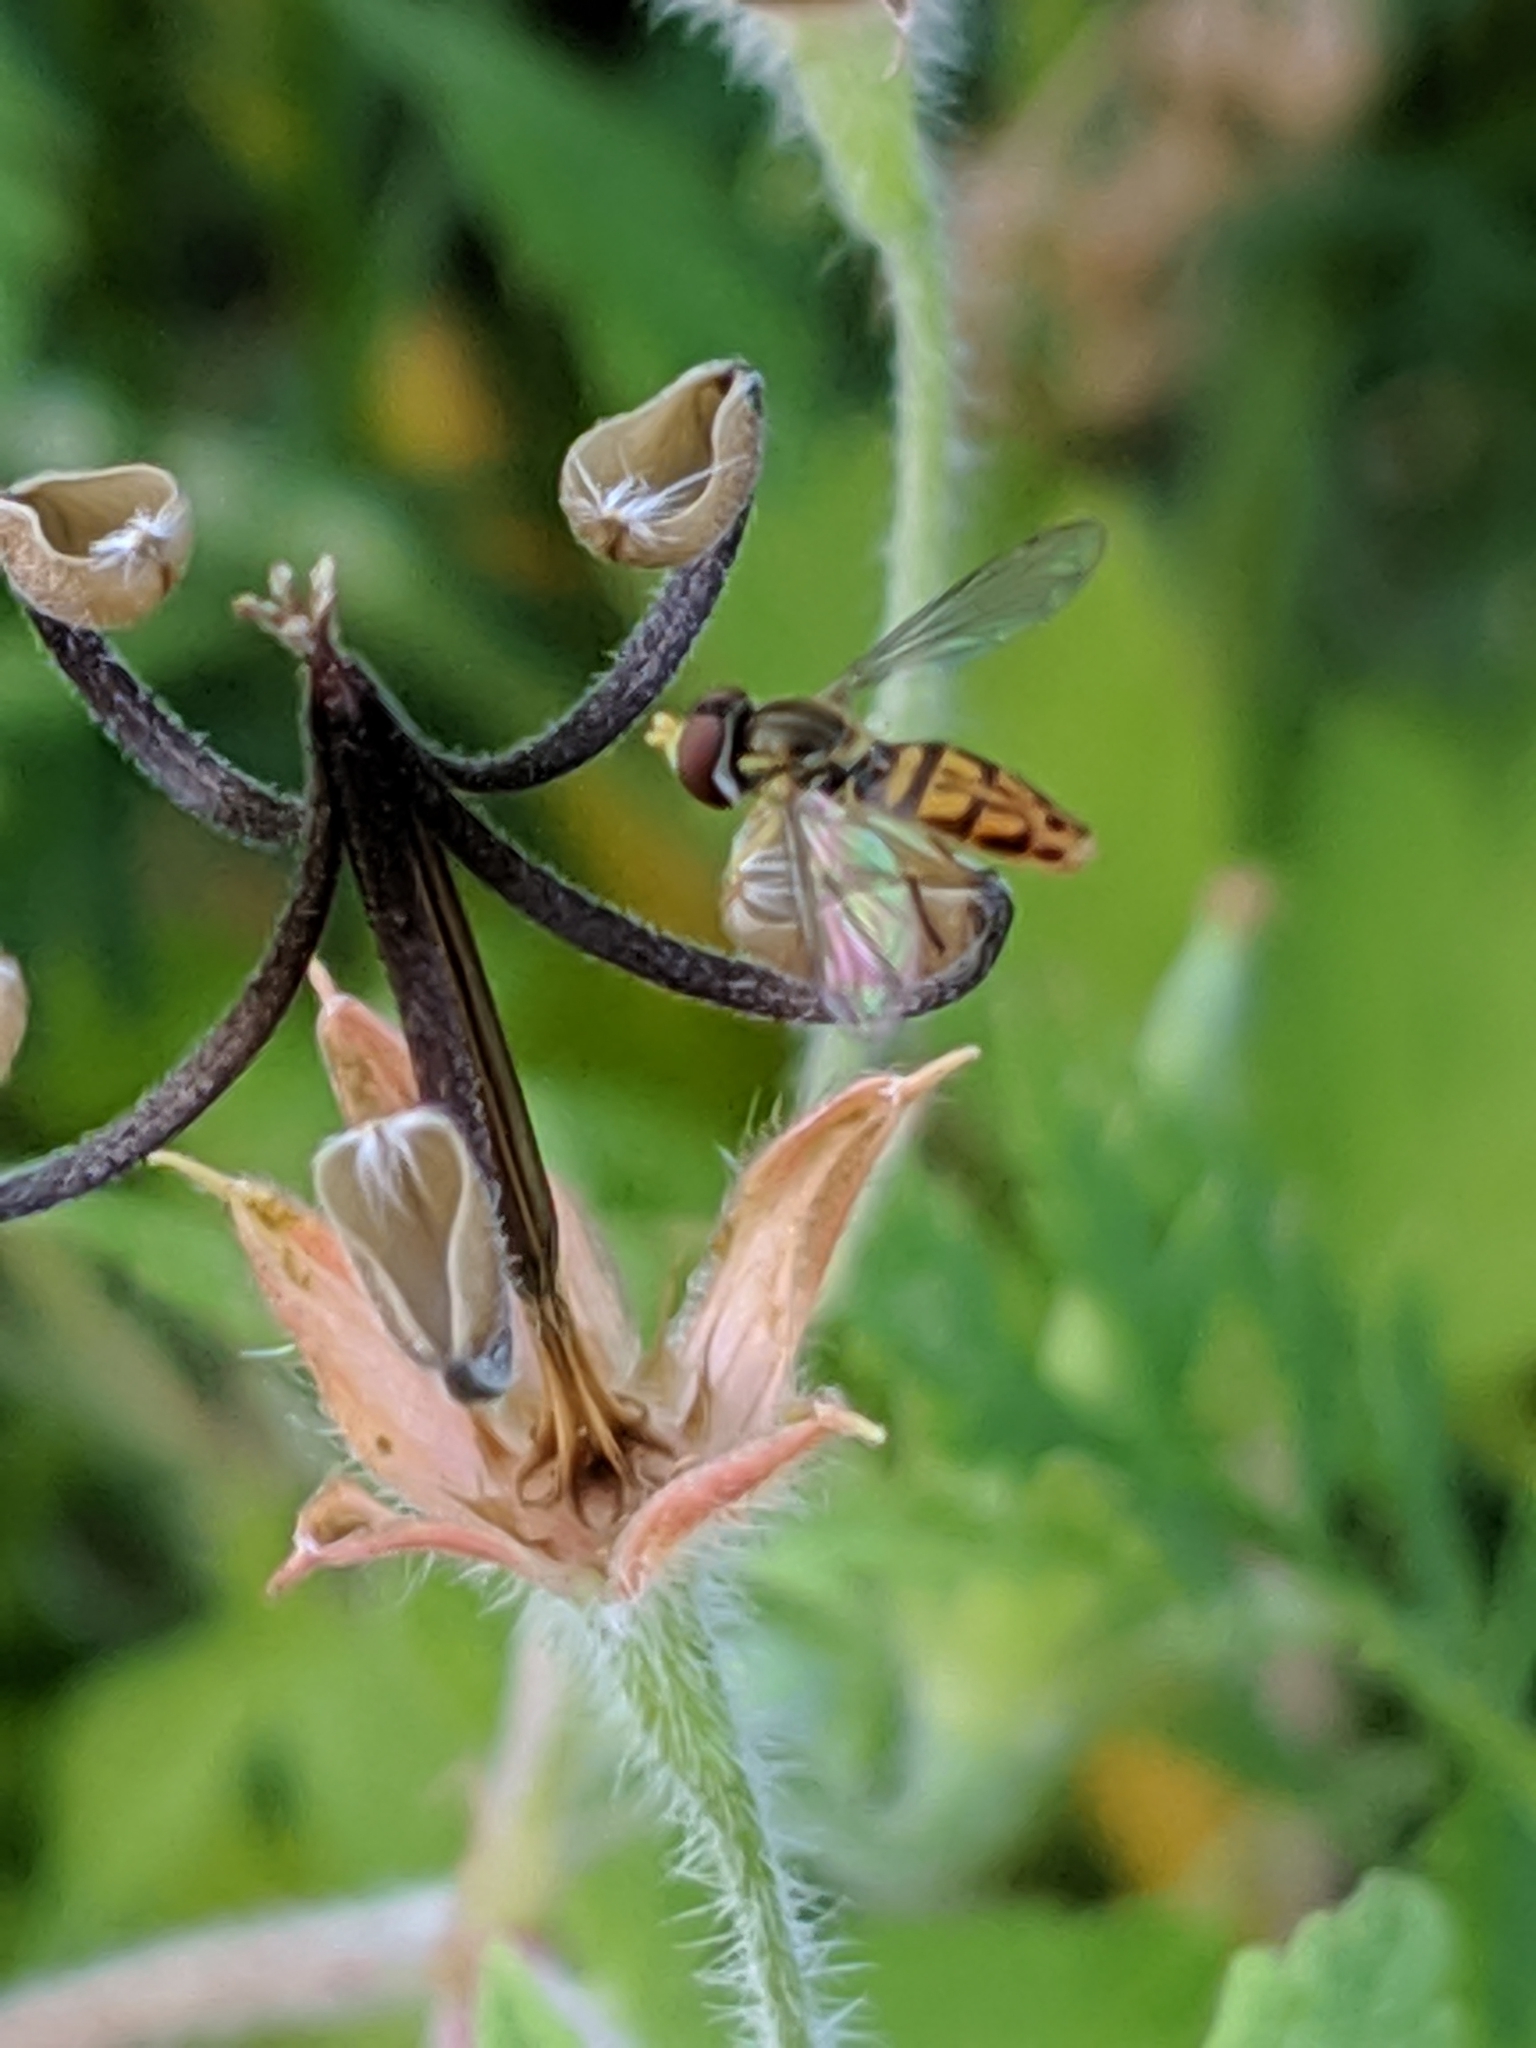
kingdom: Animalia
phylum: Arthropoda
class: Insecta
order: Diptera
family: Syrphidae
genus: Toxomerus
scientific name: Toxomerus marginatus
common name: Syrphid fly
